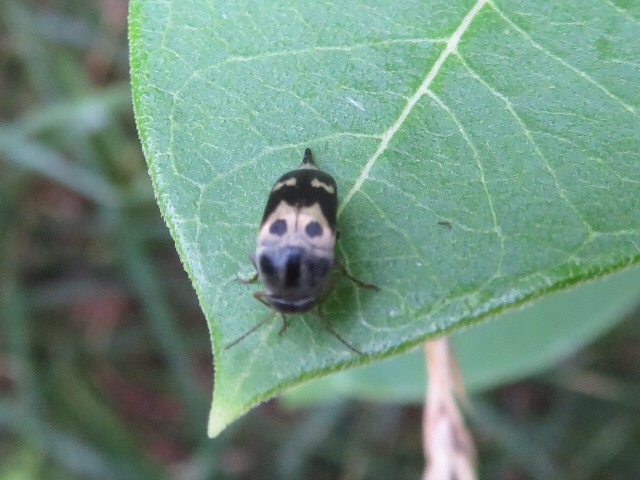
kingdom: Animalia
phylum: Arthropoda
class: Insecta
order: Coleoptera
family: Mordellidae
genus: Glipa
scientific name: Glipa oculata
